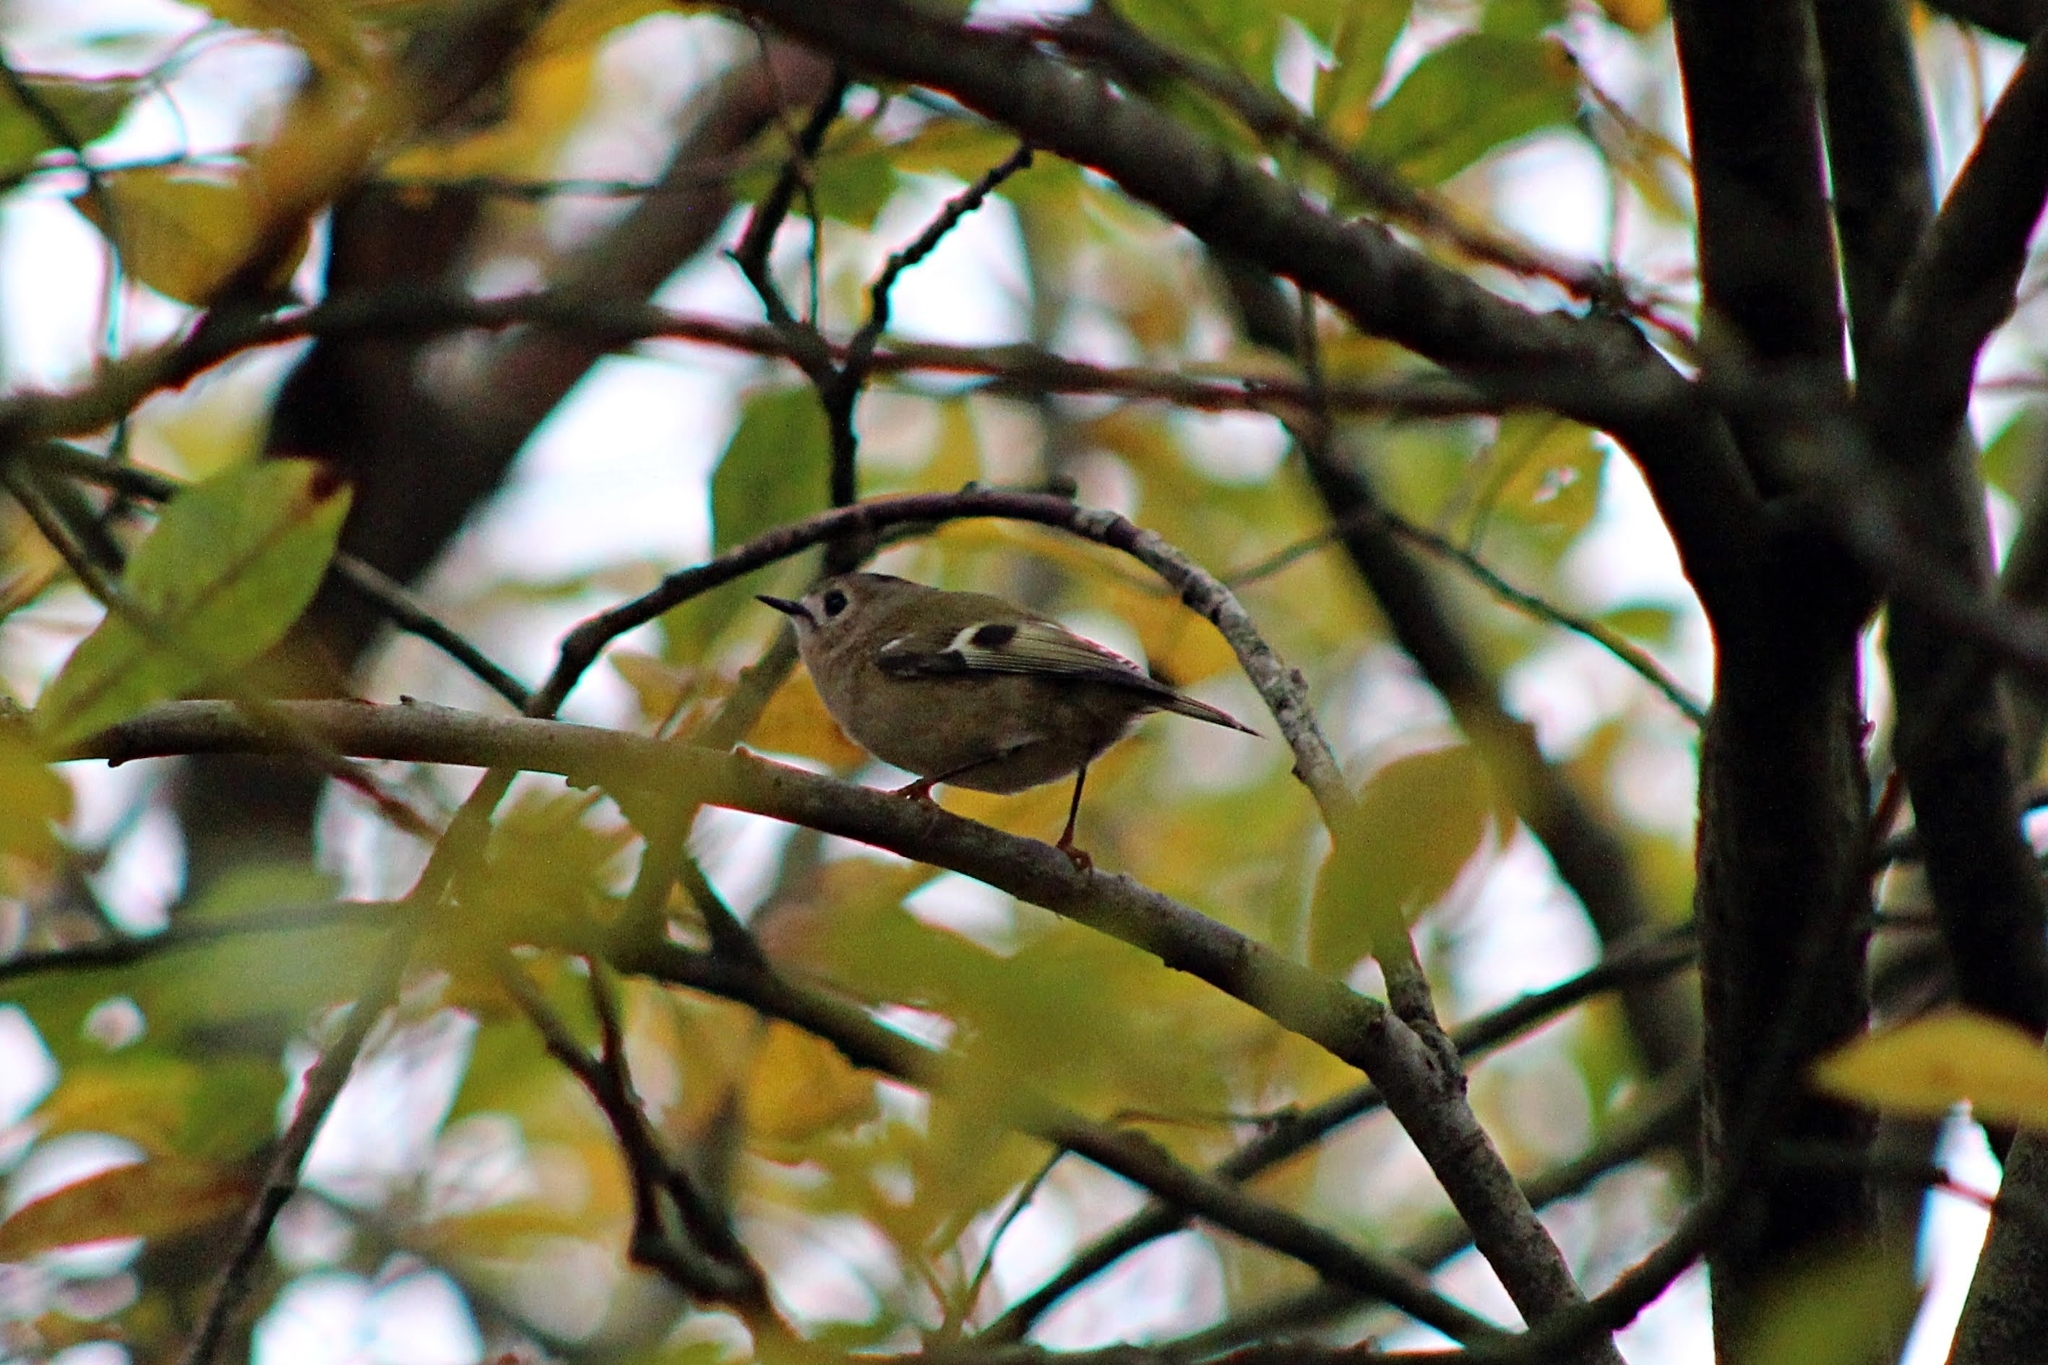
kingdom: Animalia
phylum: Chordata
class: Aves
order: Passeriformes
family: Regulidae
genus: Regulus
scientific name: Regulus regulus
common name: Goldcrest
